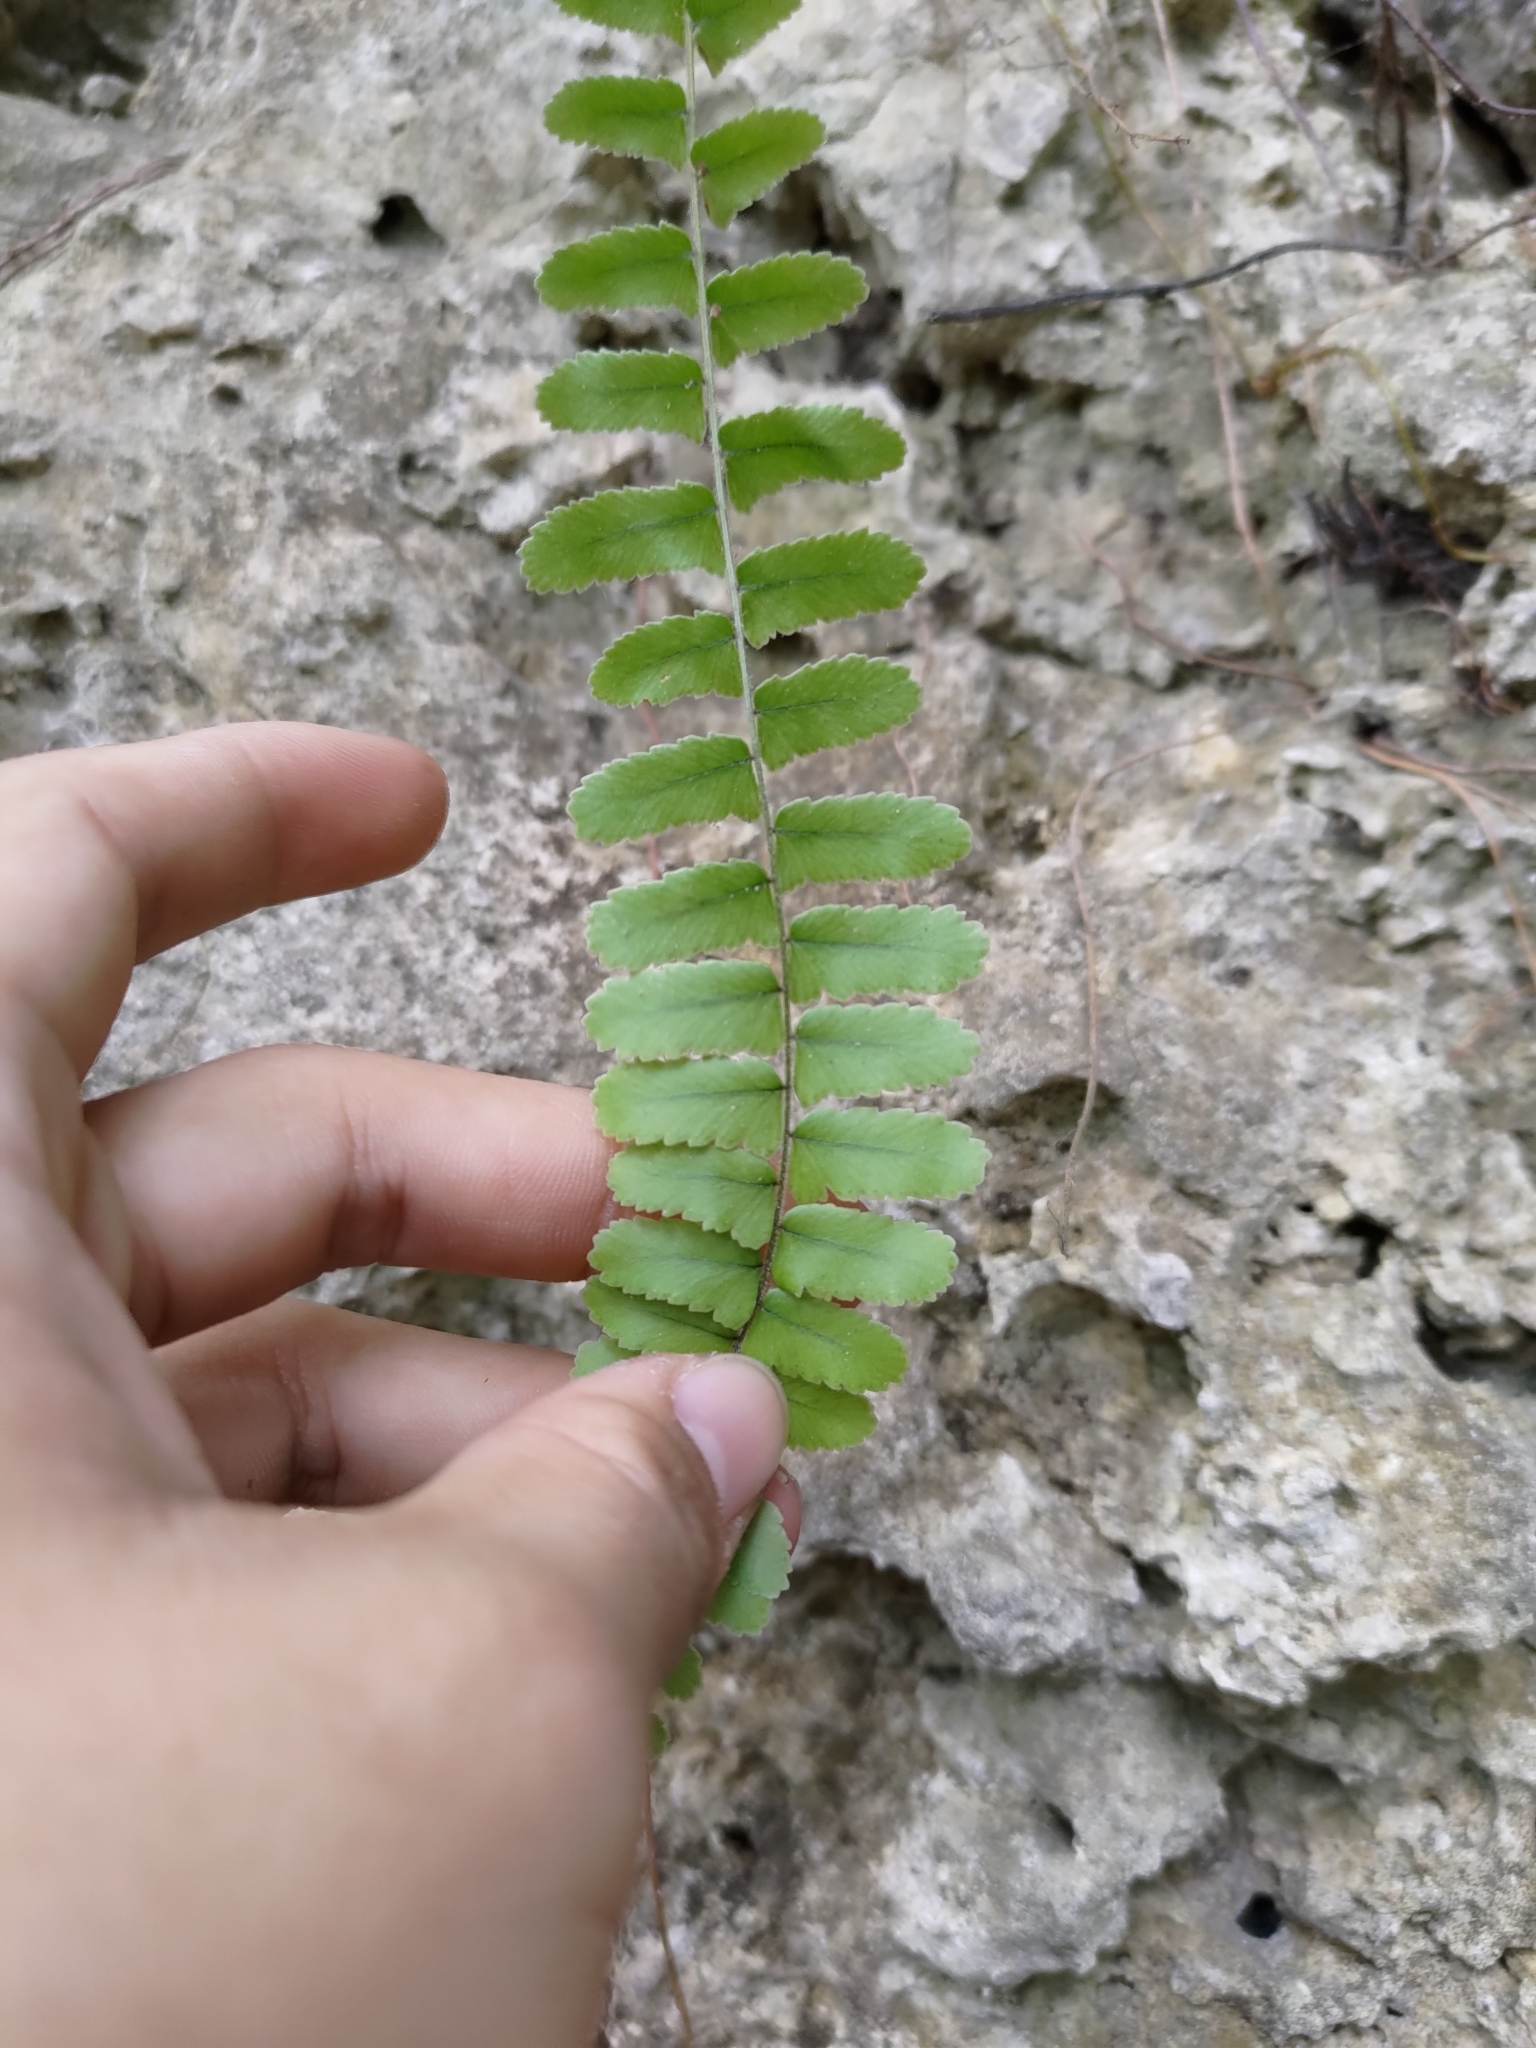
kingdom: Plantae
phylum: Tracheophyta
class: Polypodiopsida
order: Polypodiales
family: Nephrolepidaceae
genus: Nephrolepis
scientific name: Nephrolepis brownii
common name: Asian swordfern
